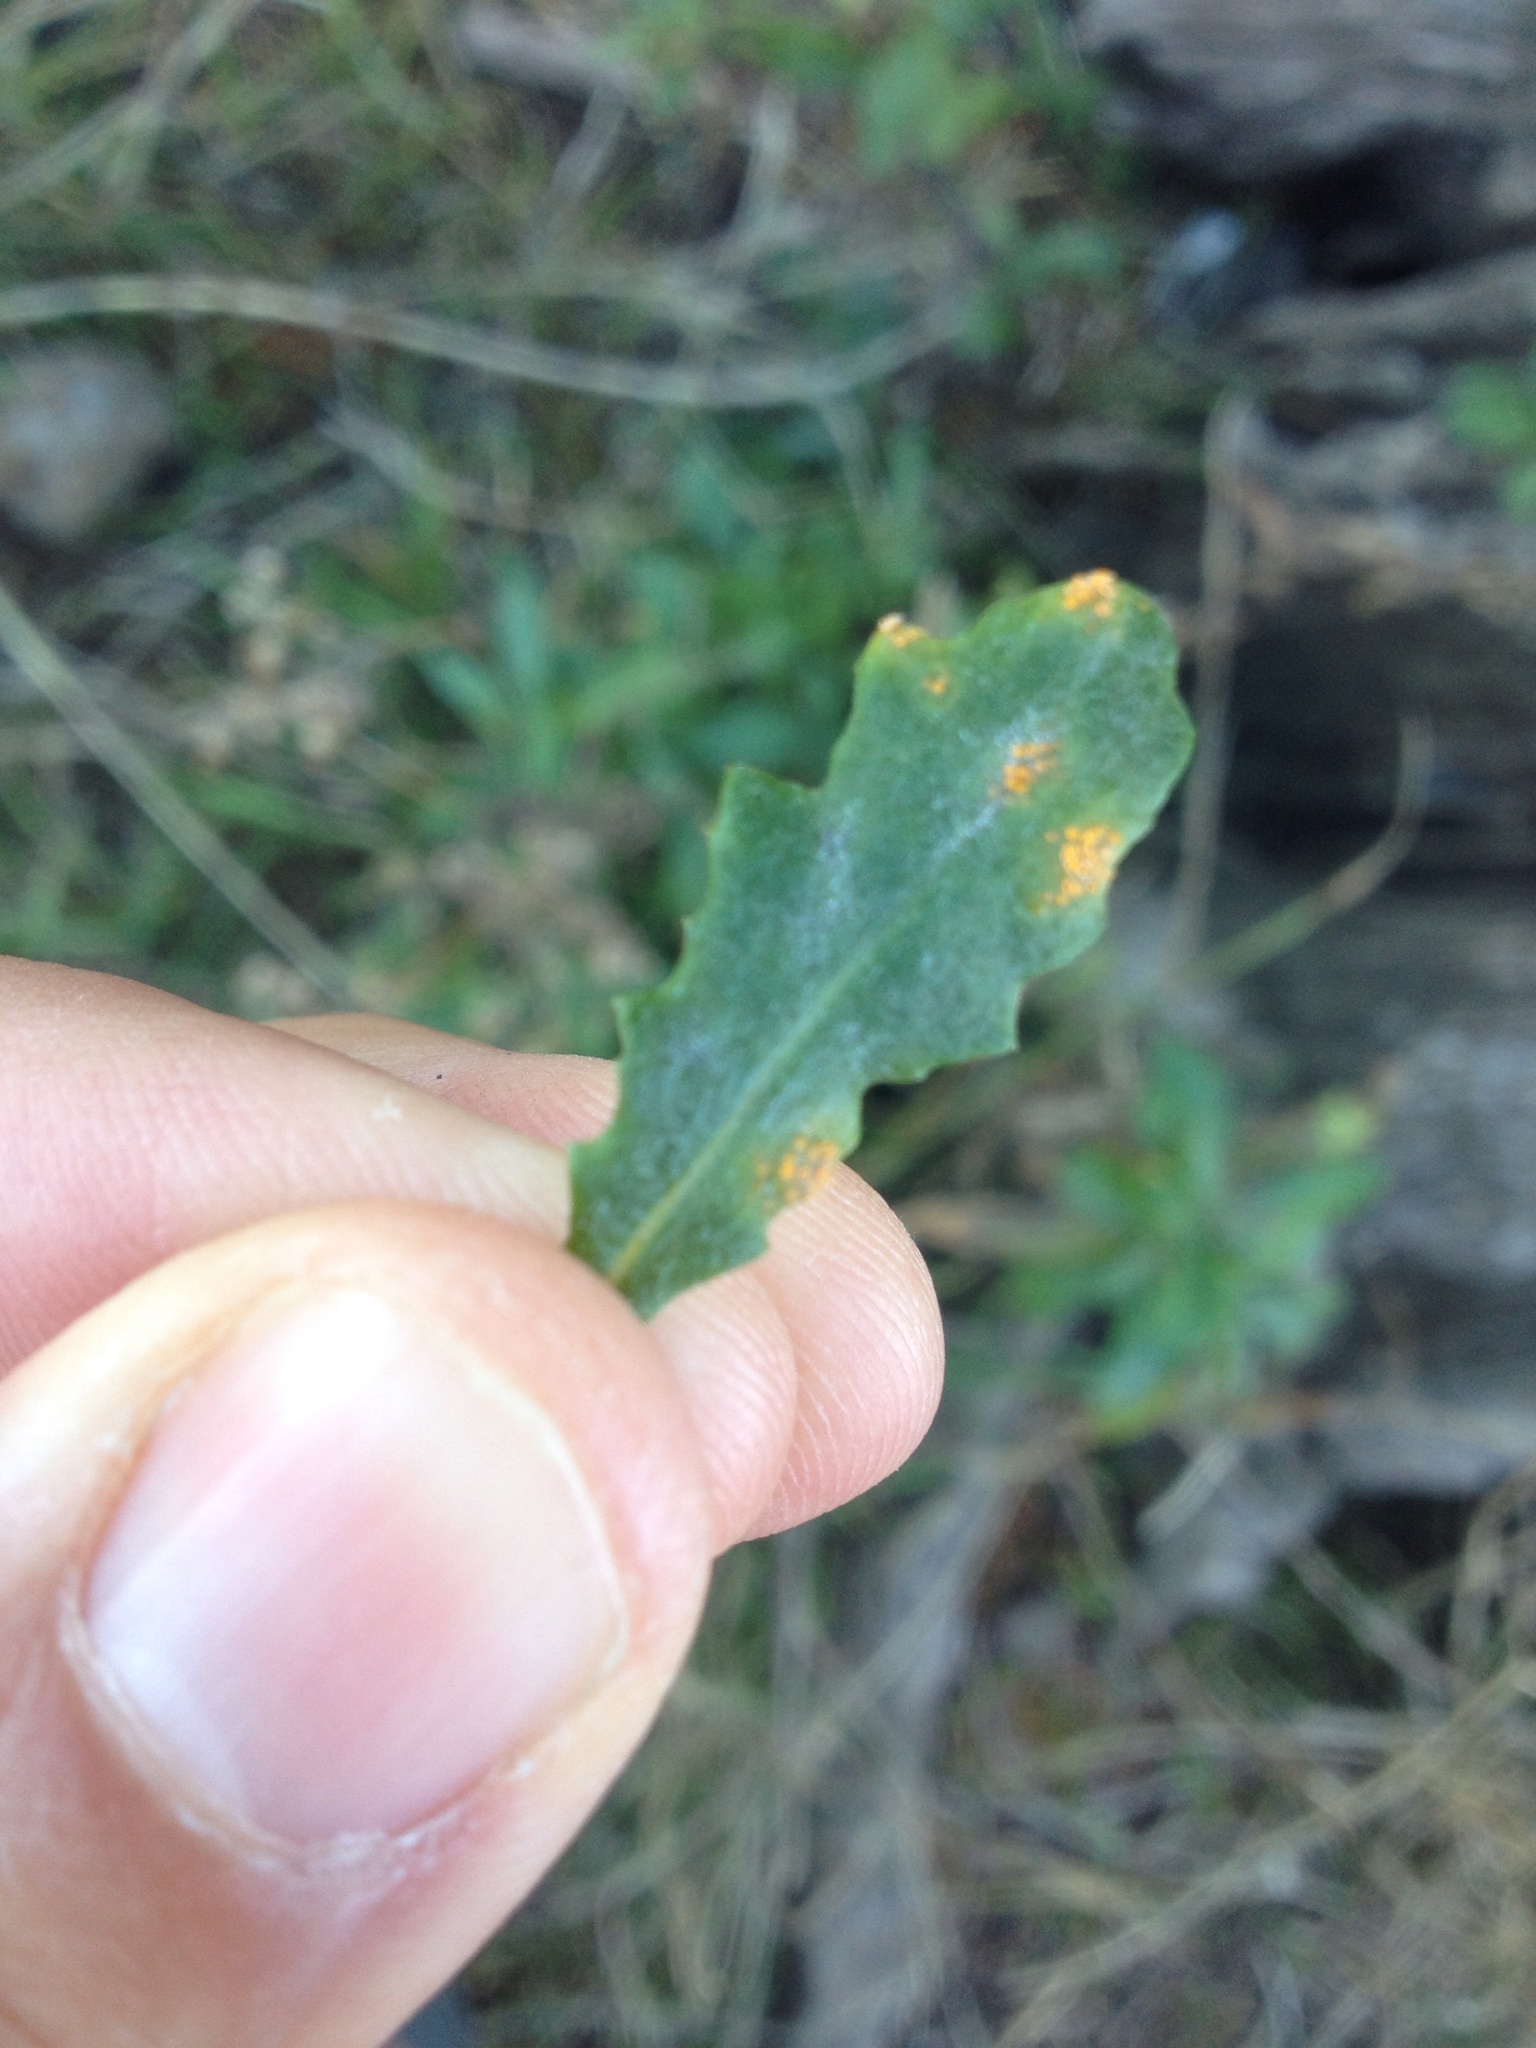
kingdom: Fungi
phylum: Basidiomycota
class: Pucciniomycetes
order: Pucciniales
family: Pucciniaceae
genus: Puccinia
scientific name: Puccinia lagenophorae
